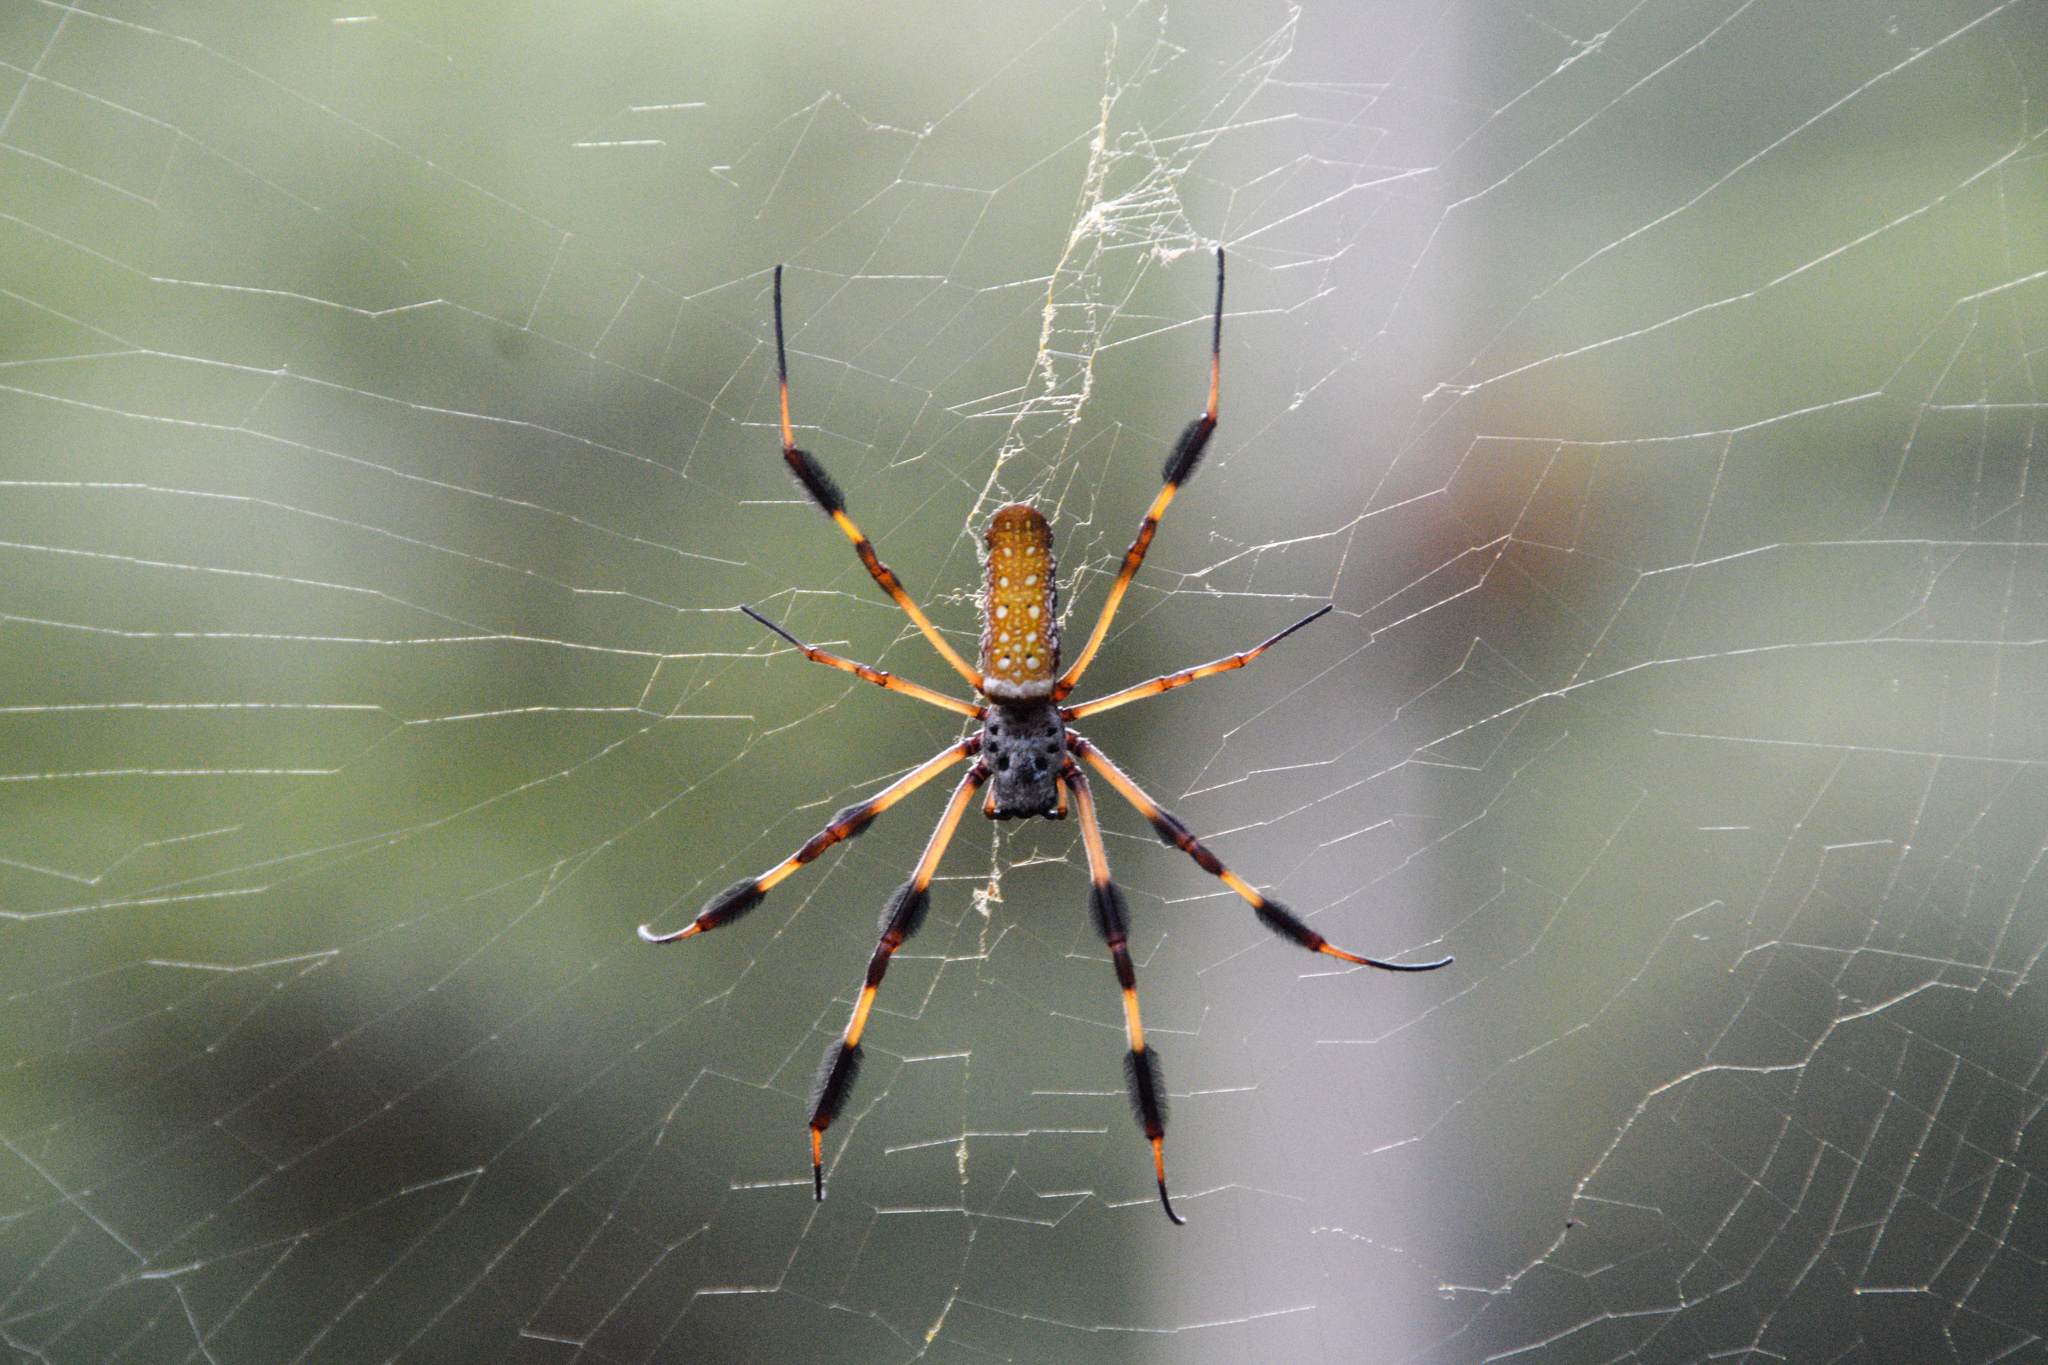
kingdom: Animalia
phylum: Arthropoda
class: Arachnida
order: Araneae
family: Araneidae
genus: Trichonephila
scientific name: Trichonephila clavipes
